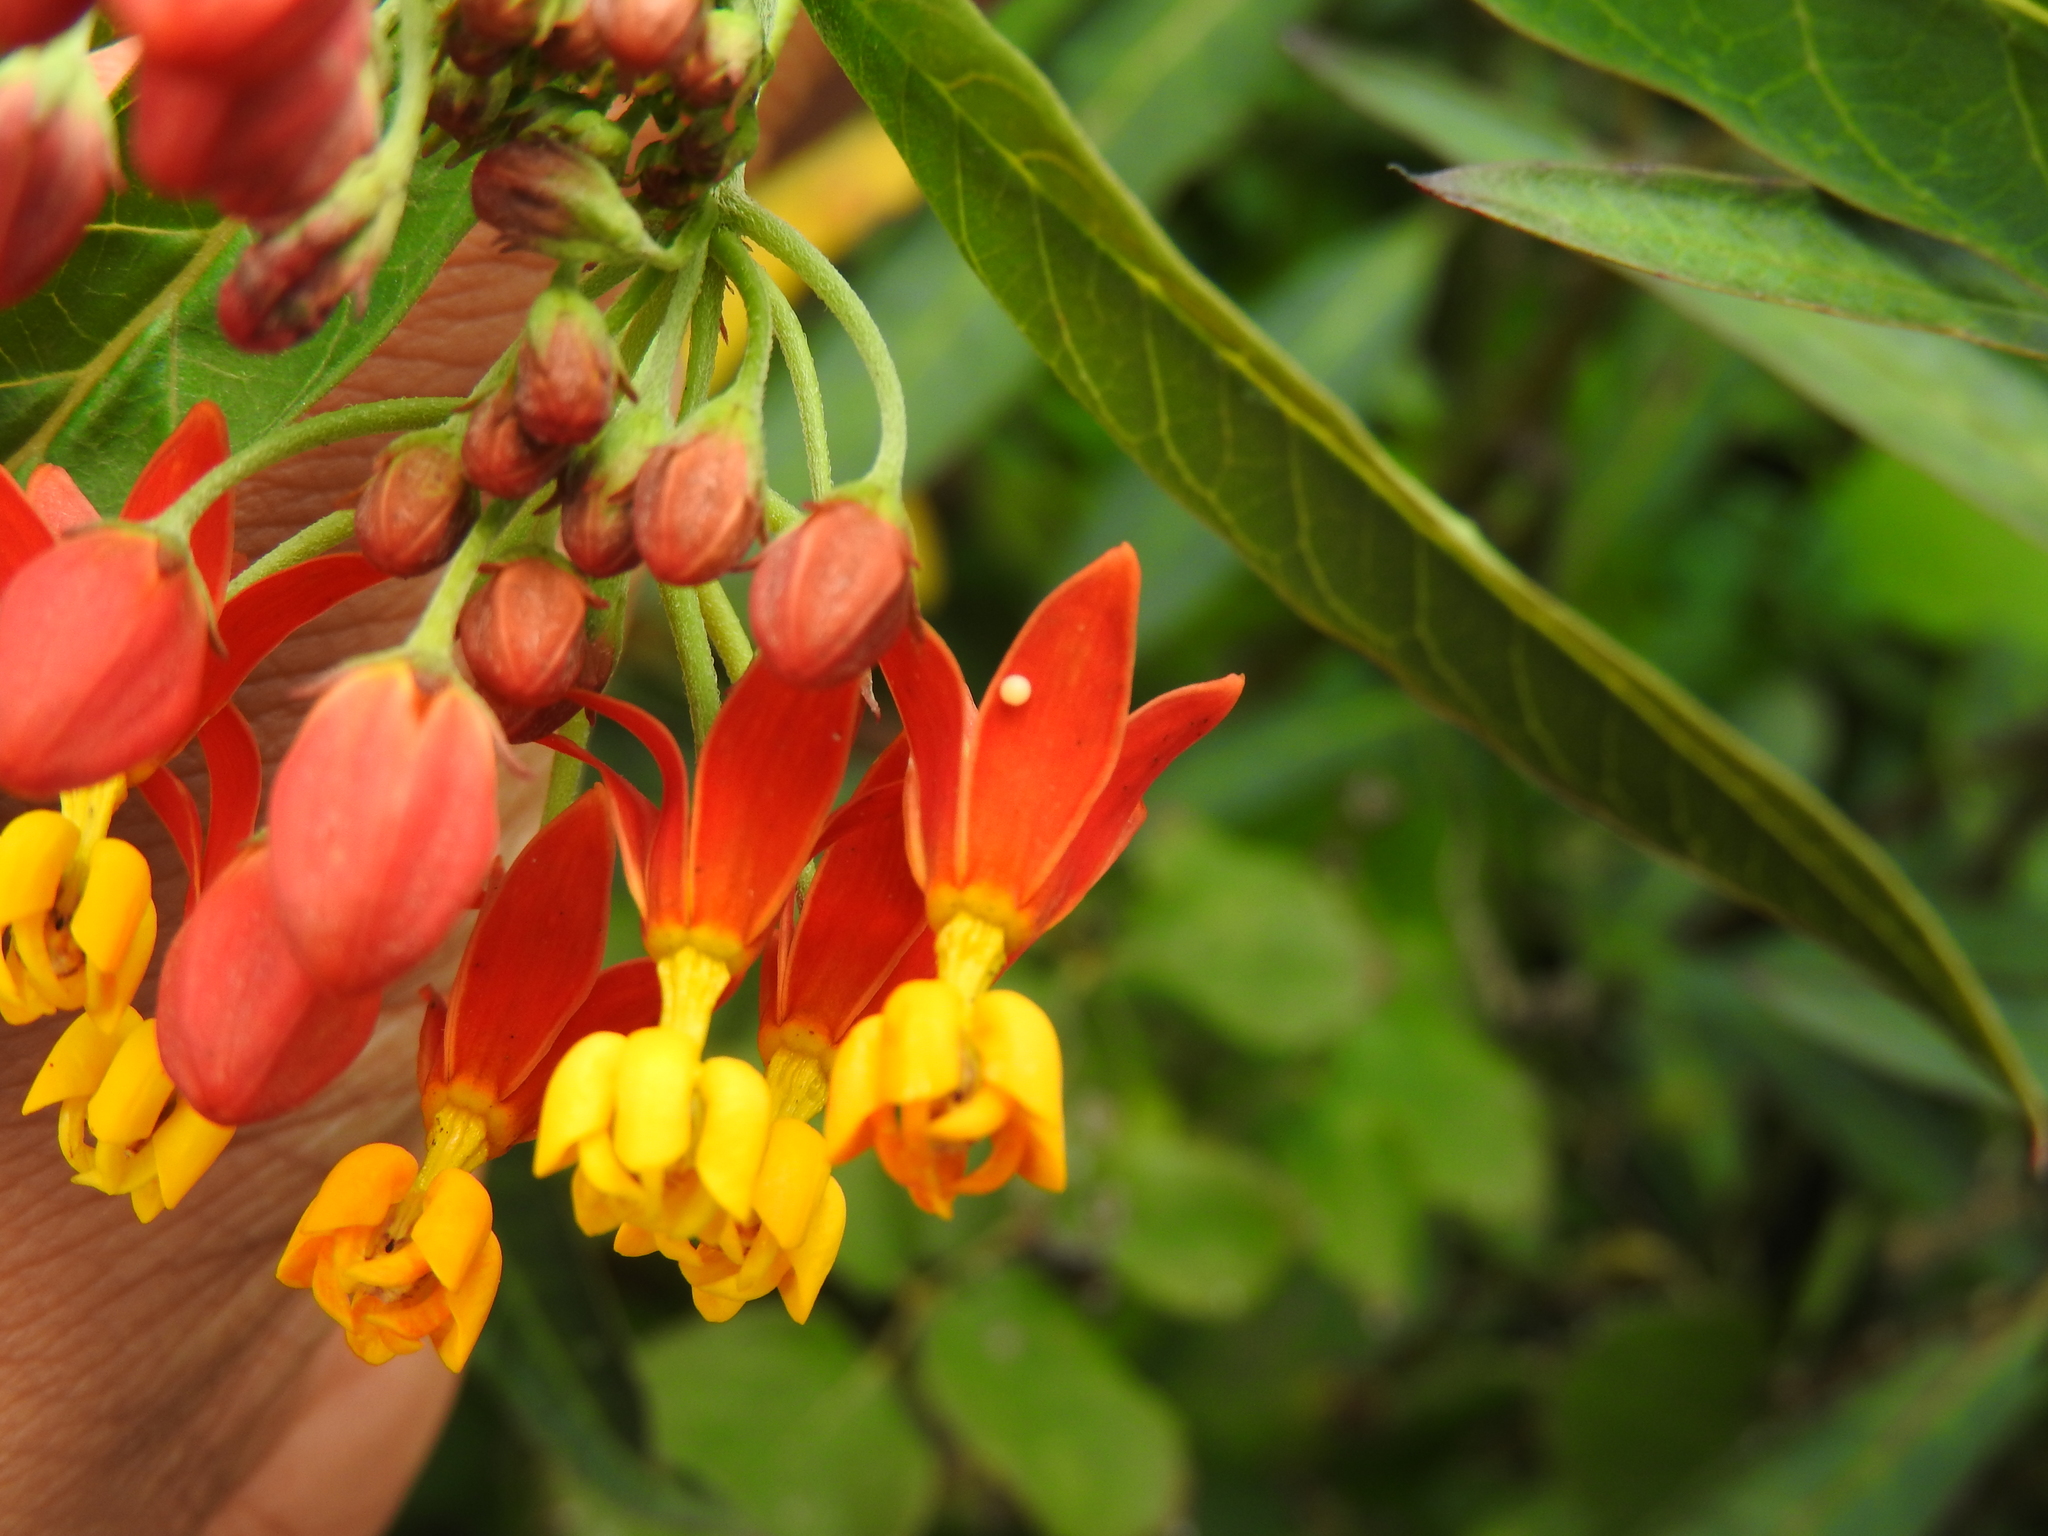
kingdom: Animalia
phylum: Arthropoda
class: Insecta
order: Lepidoptera
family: Nymphalidae
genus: Danaus
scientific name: Danaus plexippus
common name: Monarch
